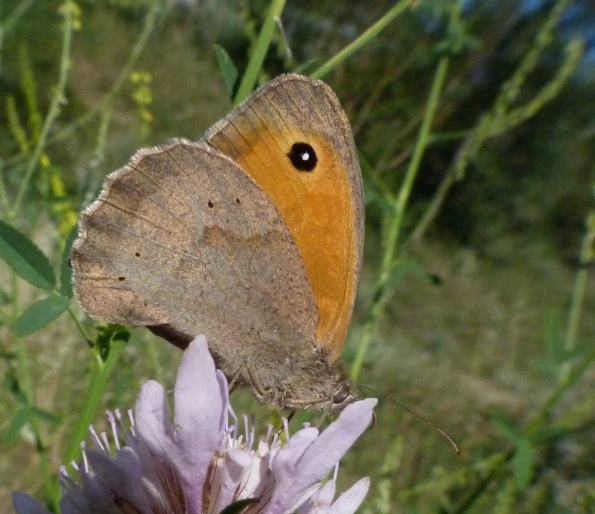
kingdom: Animalia
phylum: Arthropoda
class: Insecta
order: Lepidoptera
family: Nymphalidae
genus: Maniola
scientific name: Maniola jurtina
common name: Meadow brown
